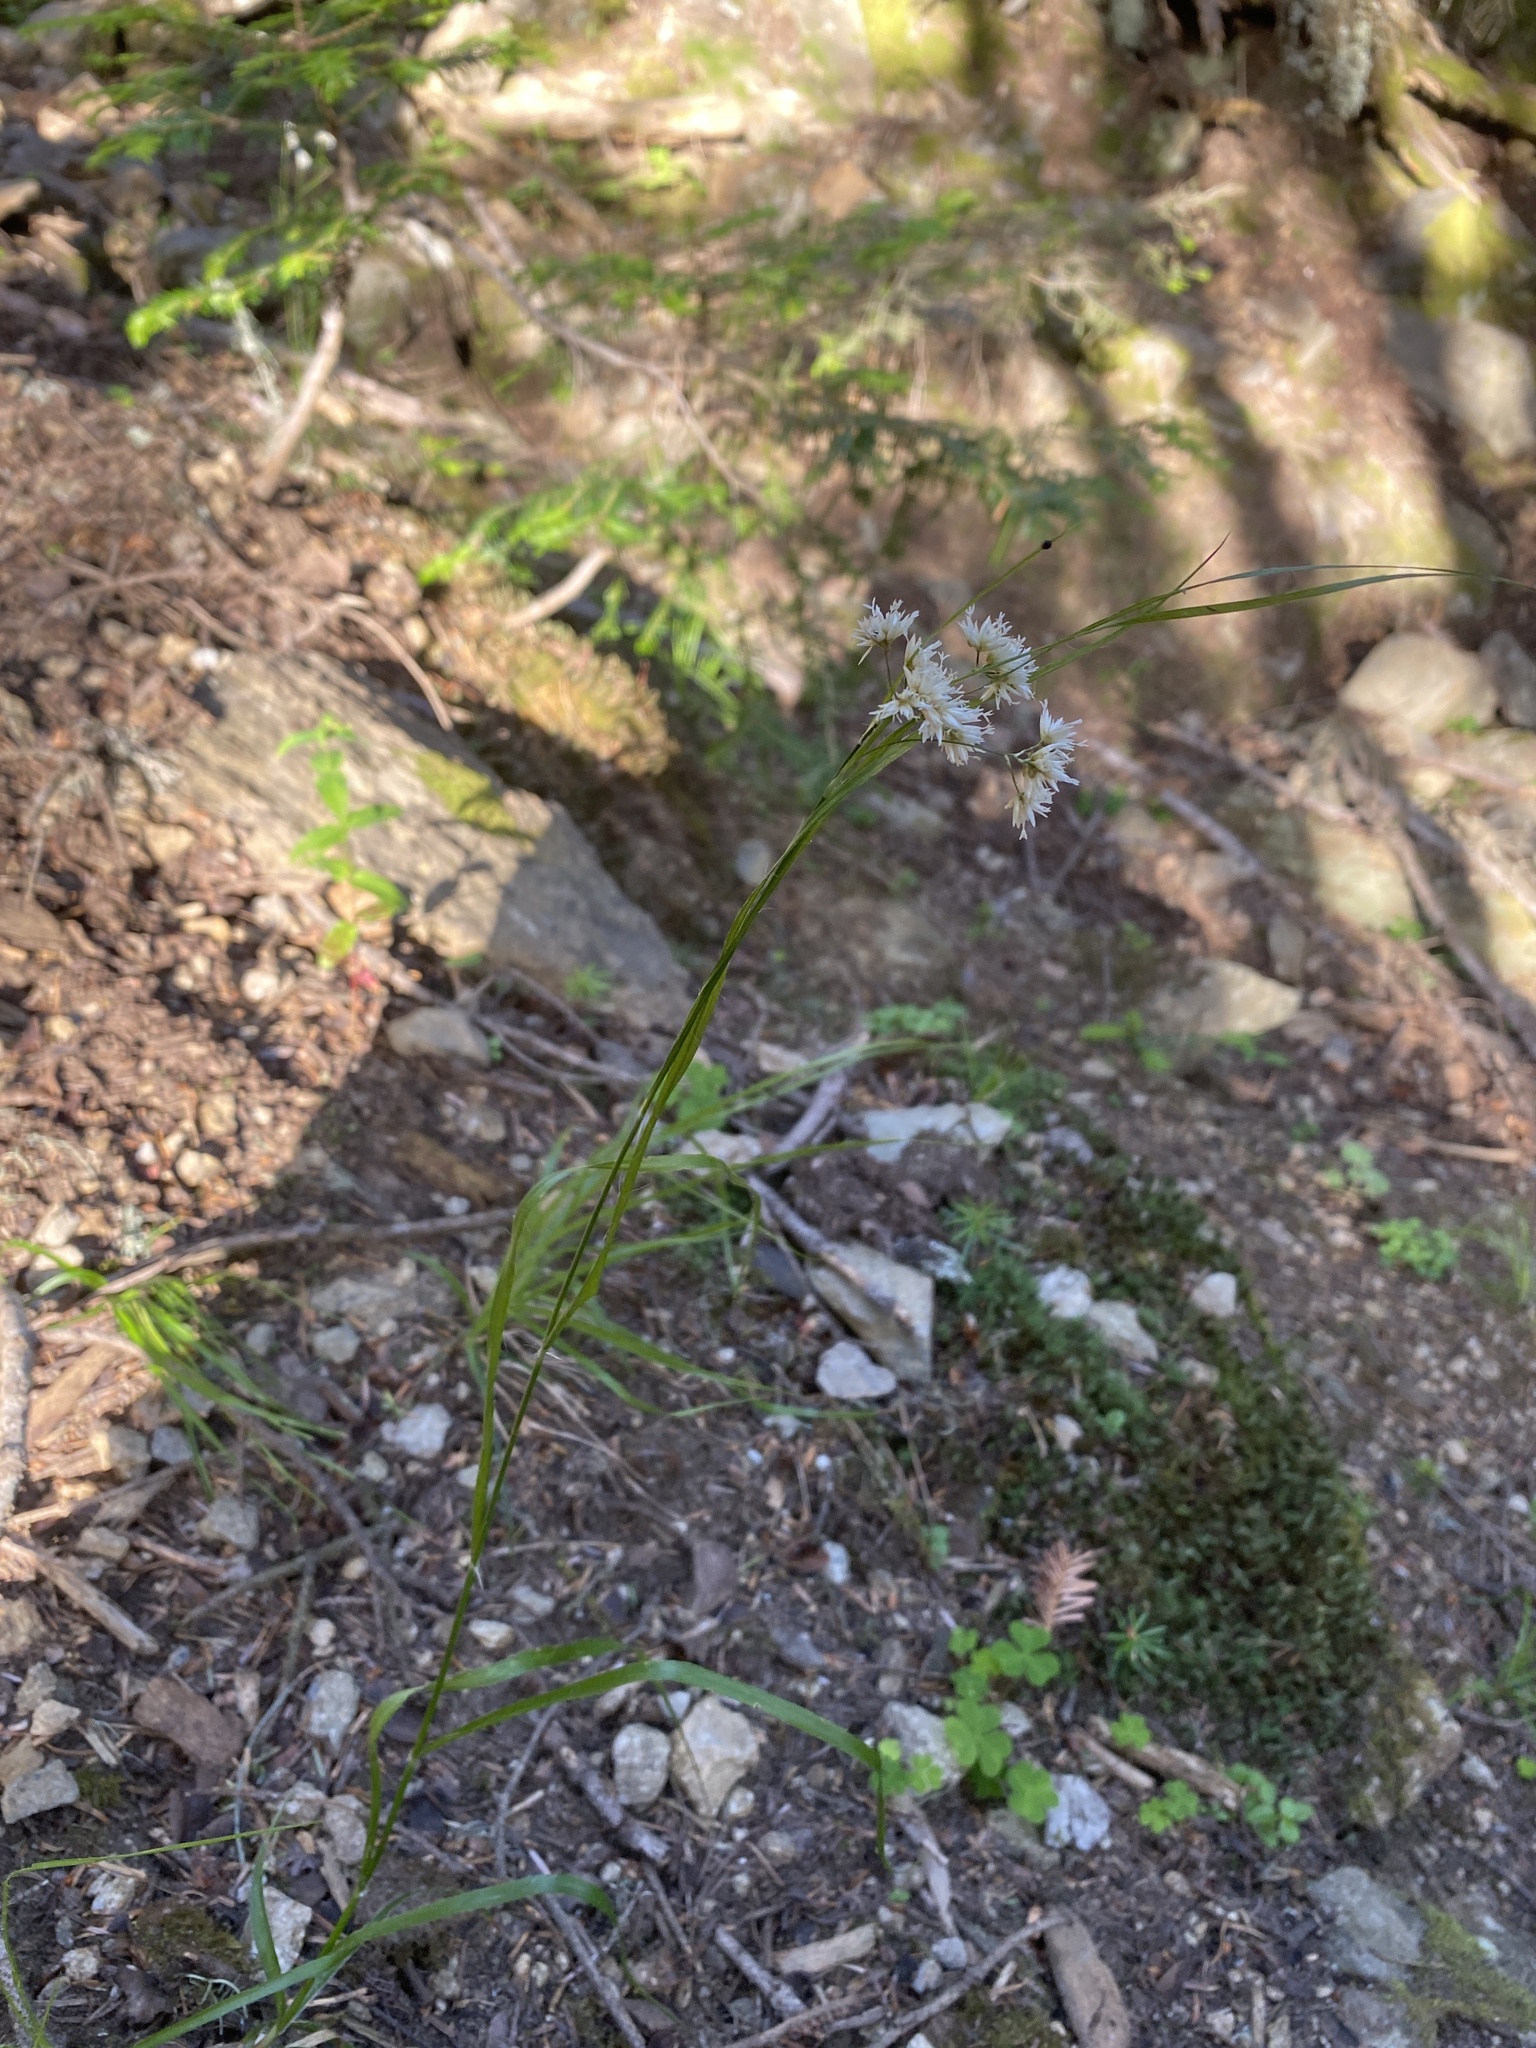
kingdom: Plantae
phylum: Tracheophyta
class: Liliopsida
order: Poales
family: Juncaceae
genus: Luzula
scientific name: Luzula nivea
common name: Snow-white wood-rush
